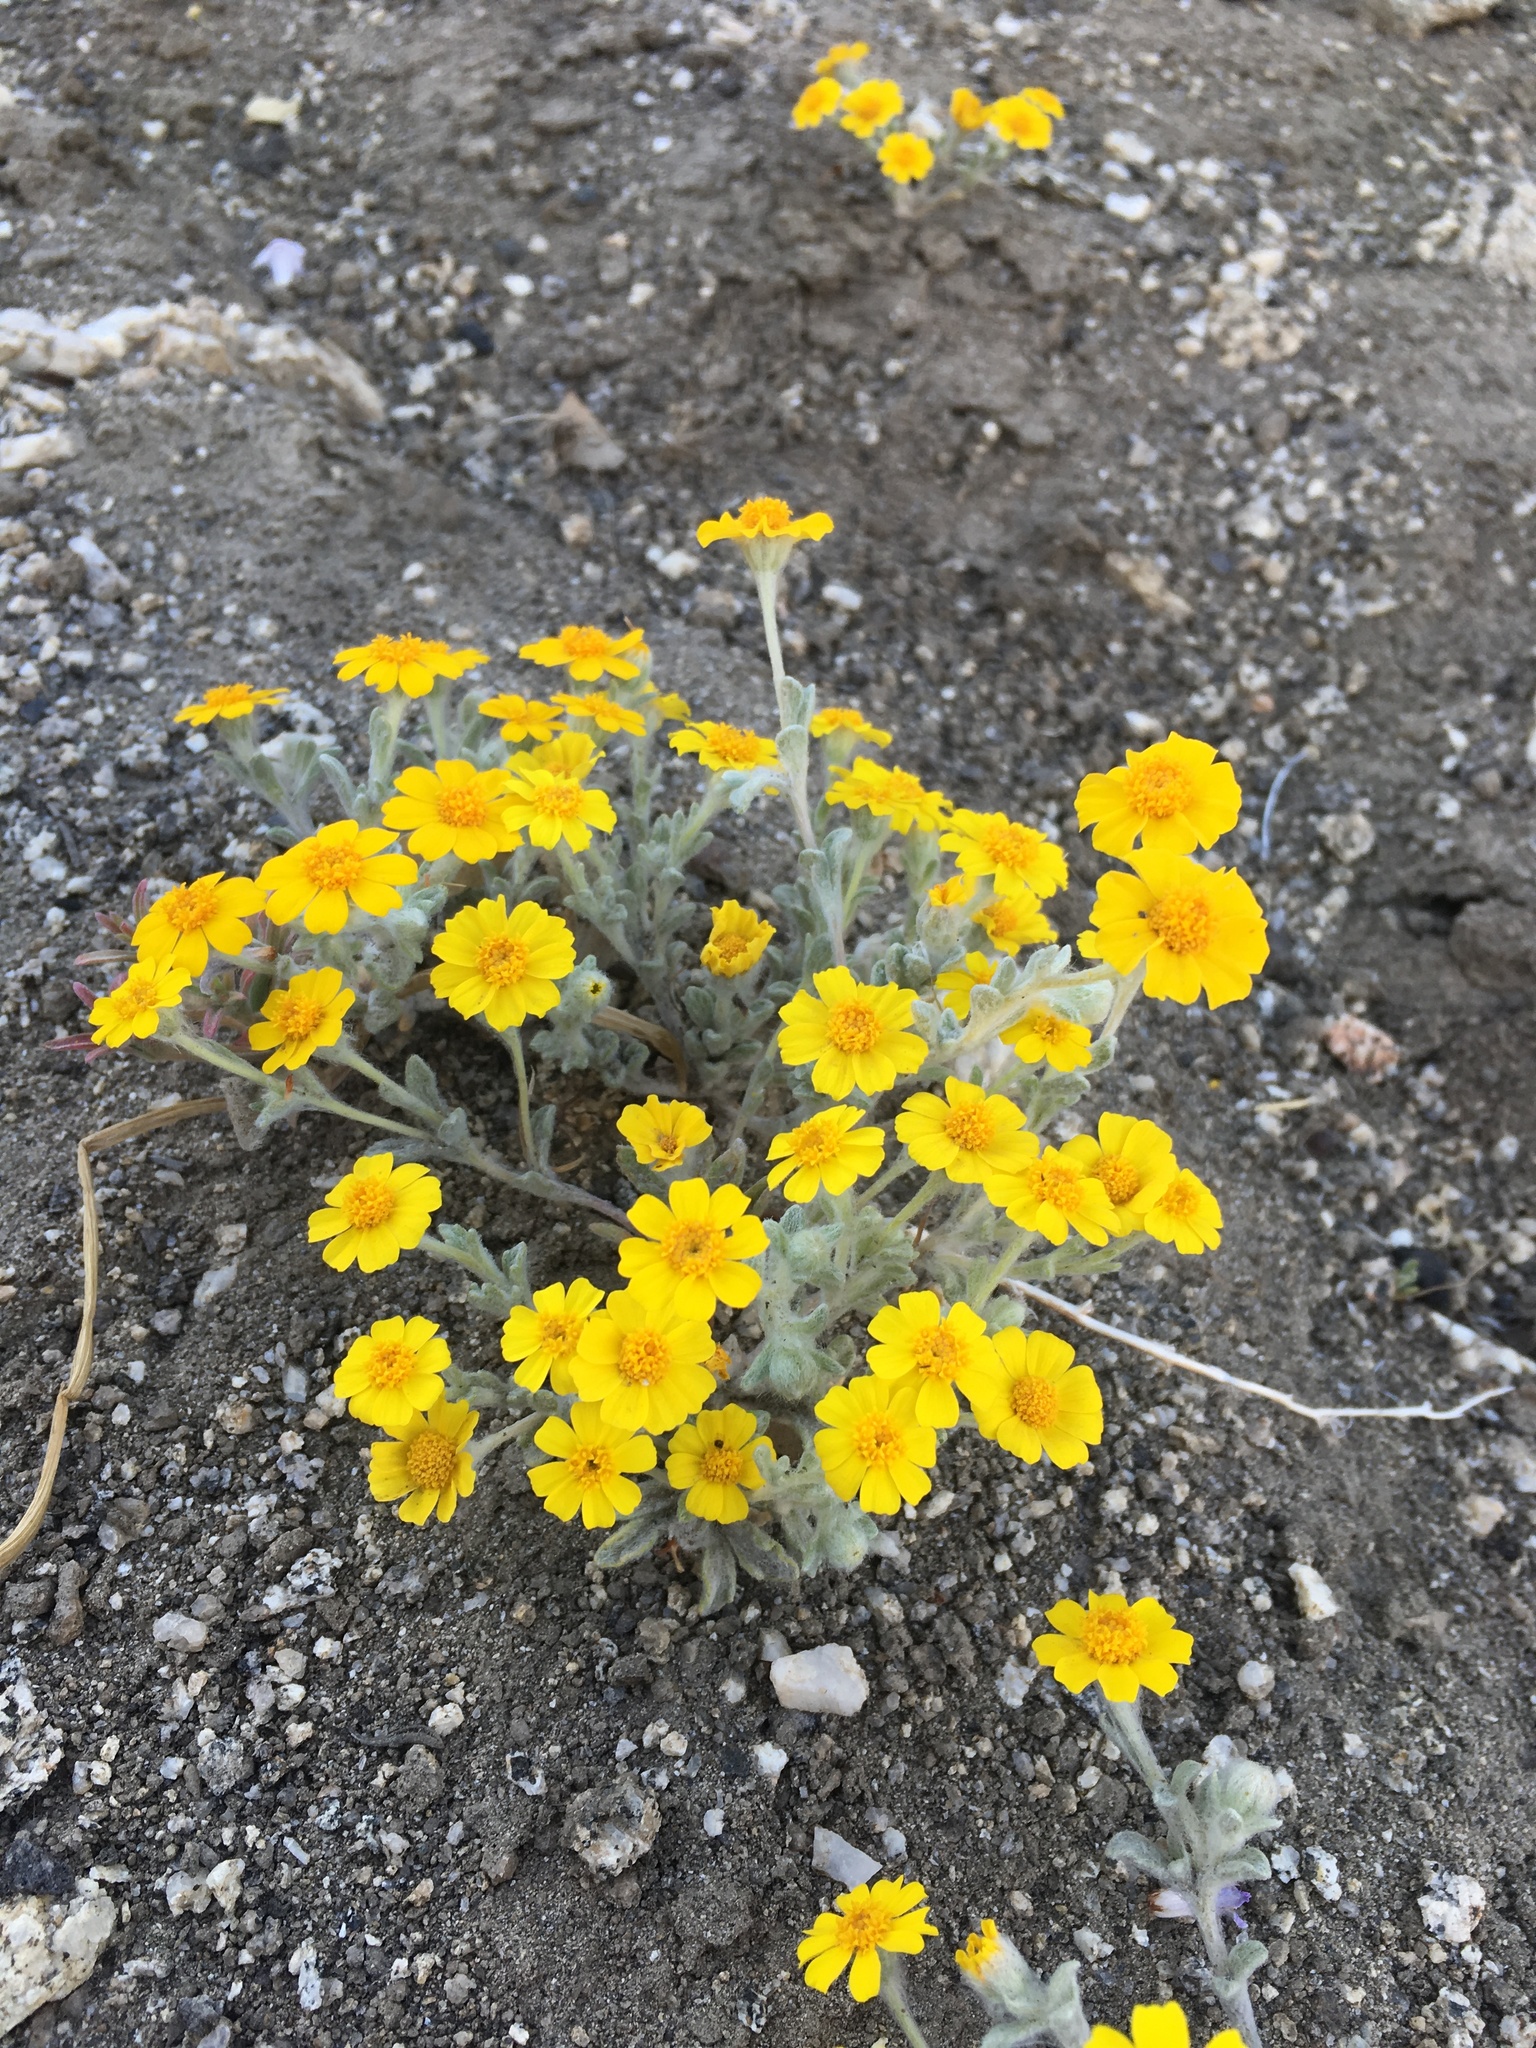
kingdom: Plantae
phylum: Tracheophyta
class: Magnoliopsida
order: Asterales
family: Asteraceae
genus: Eriophyllum
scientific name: Eriophyllum wallacei
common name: Wallace's woolly daisy
